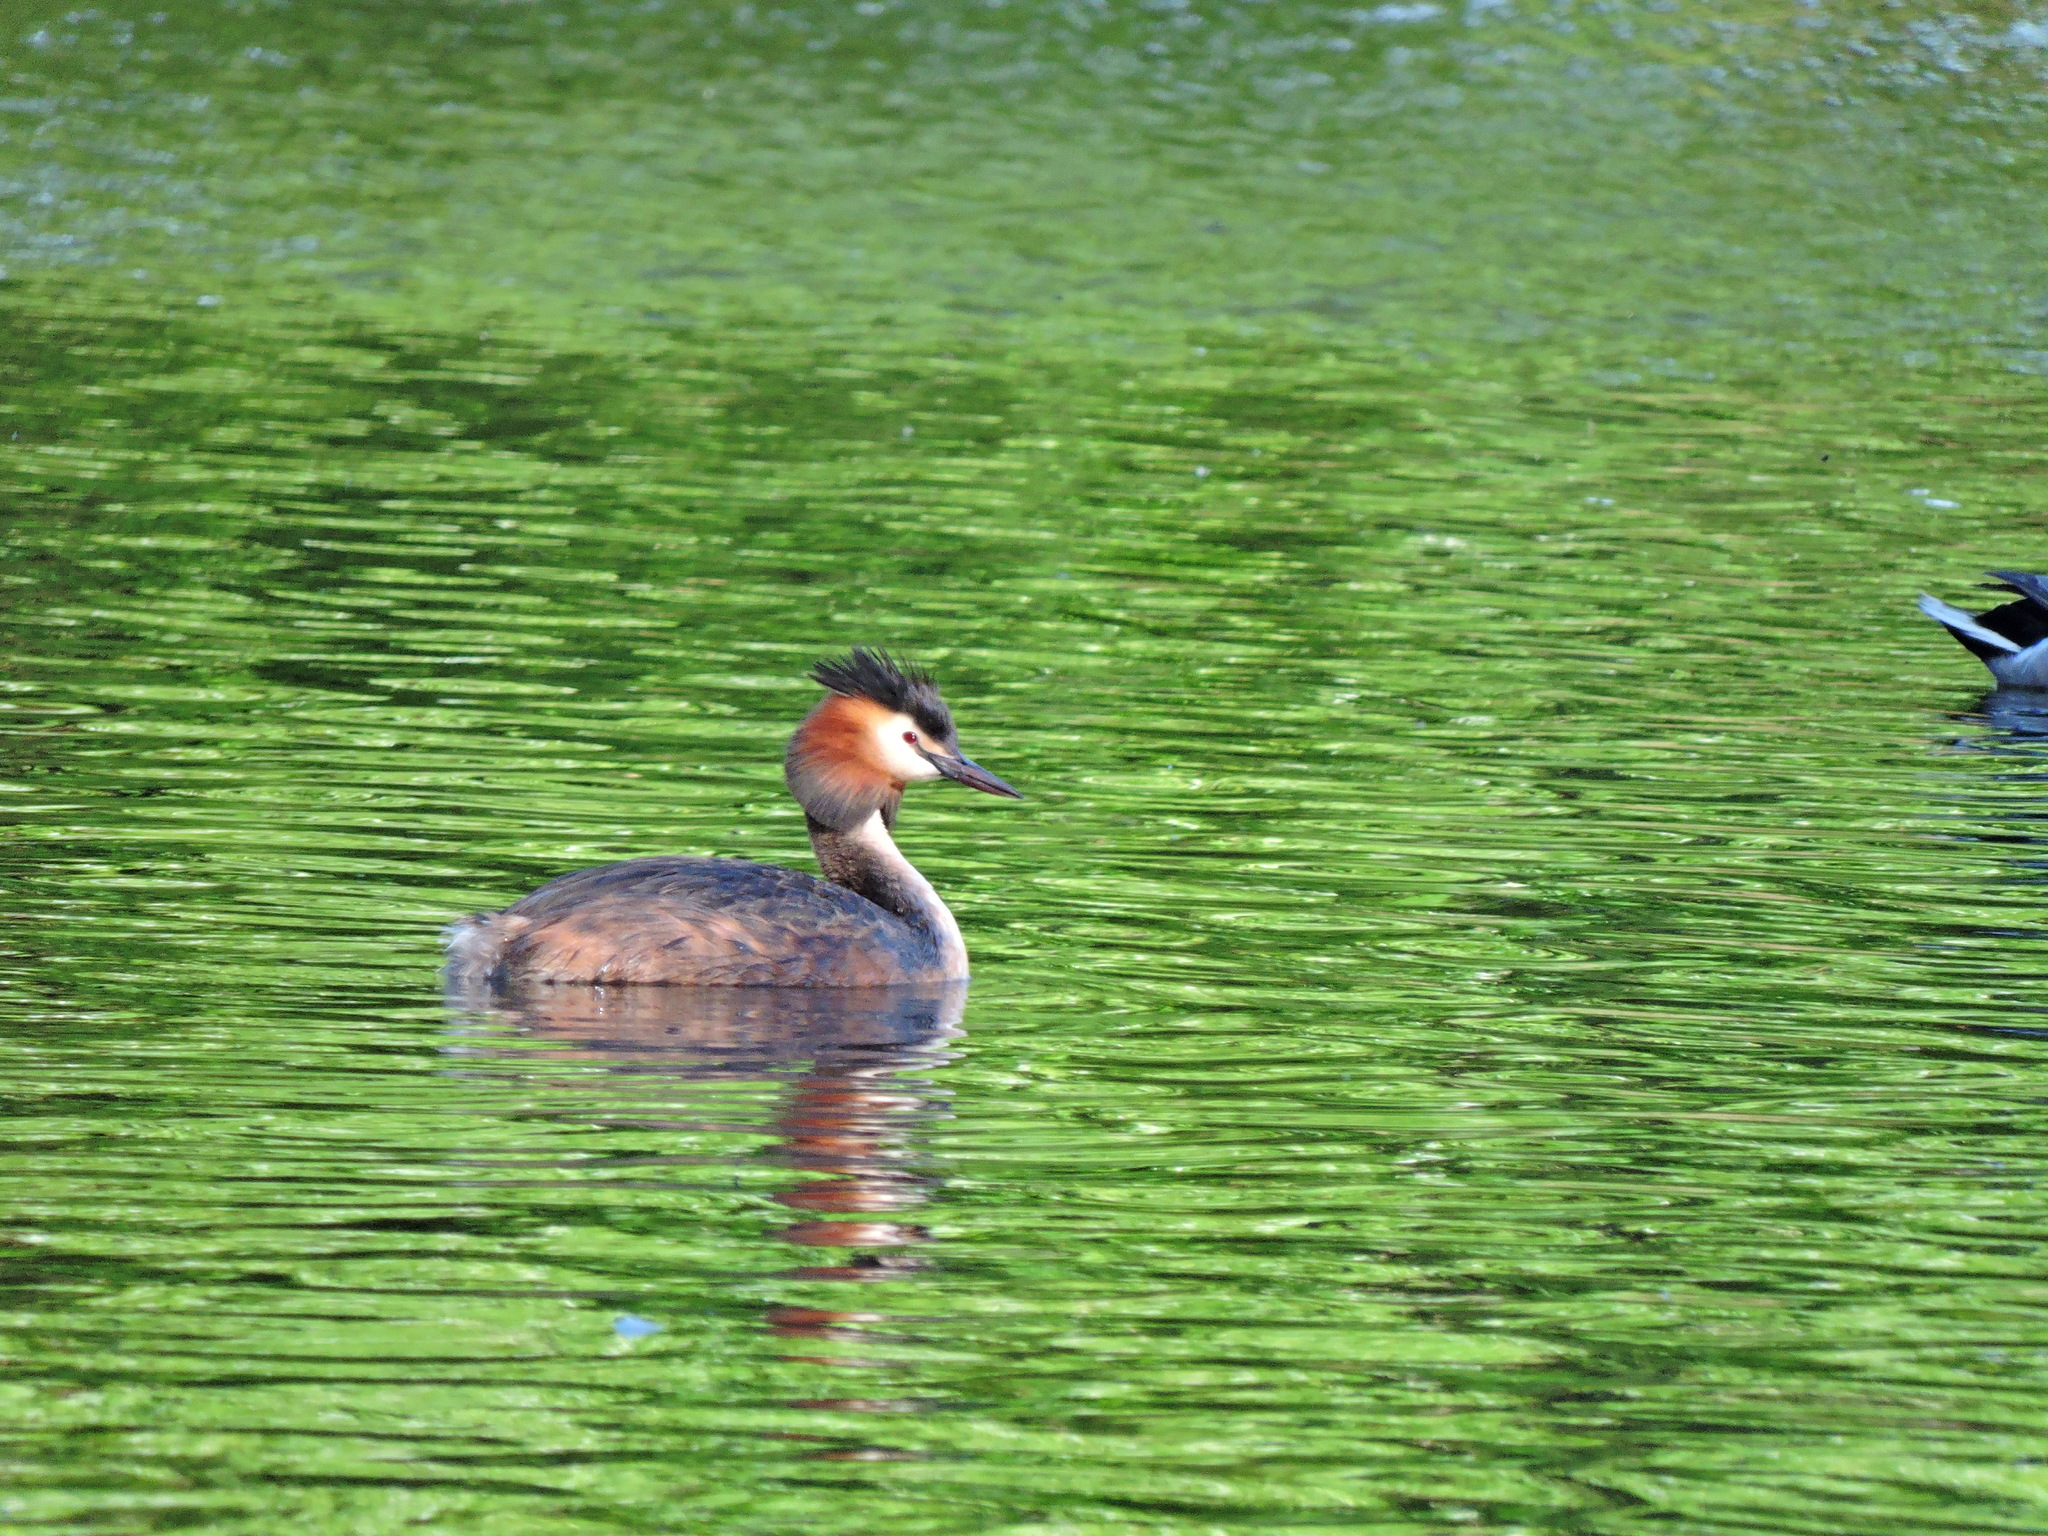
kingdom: Animalia
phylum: Chordata
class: Aves
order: Podicipediformes
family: Podicipedidae
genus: Podiceps
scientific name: Podiceps cristatus
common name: Great crested grebe
